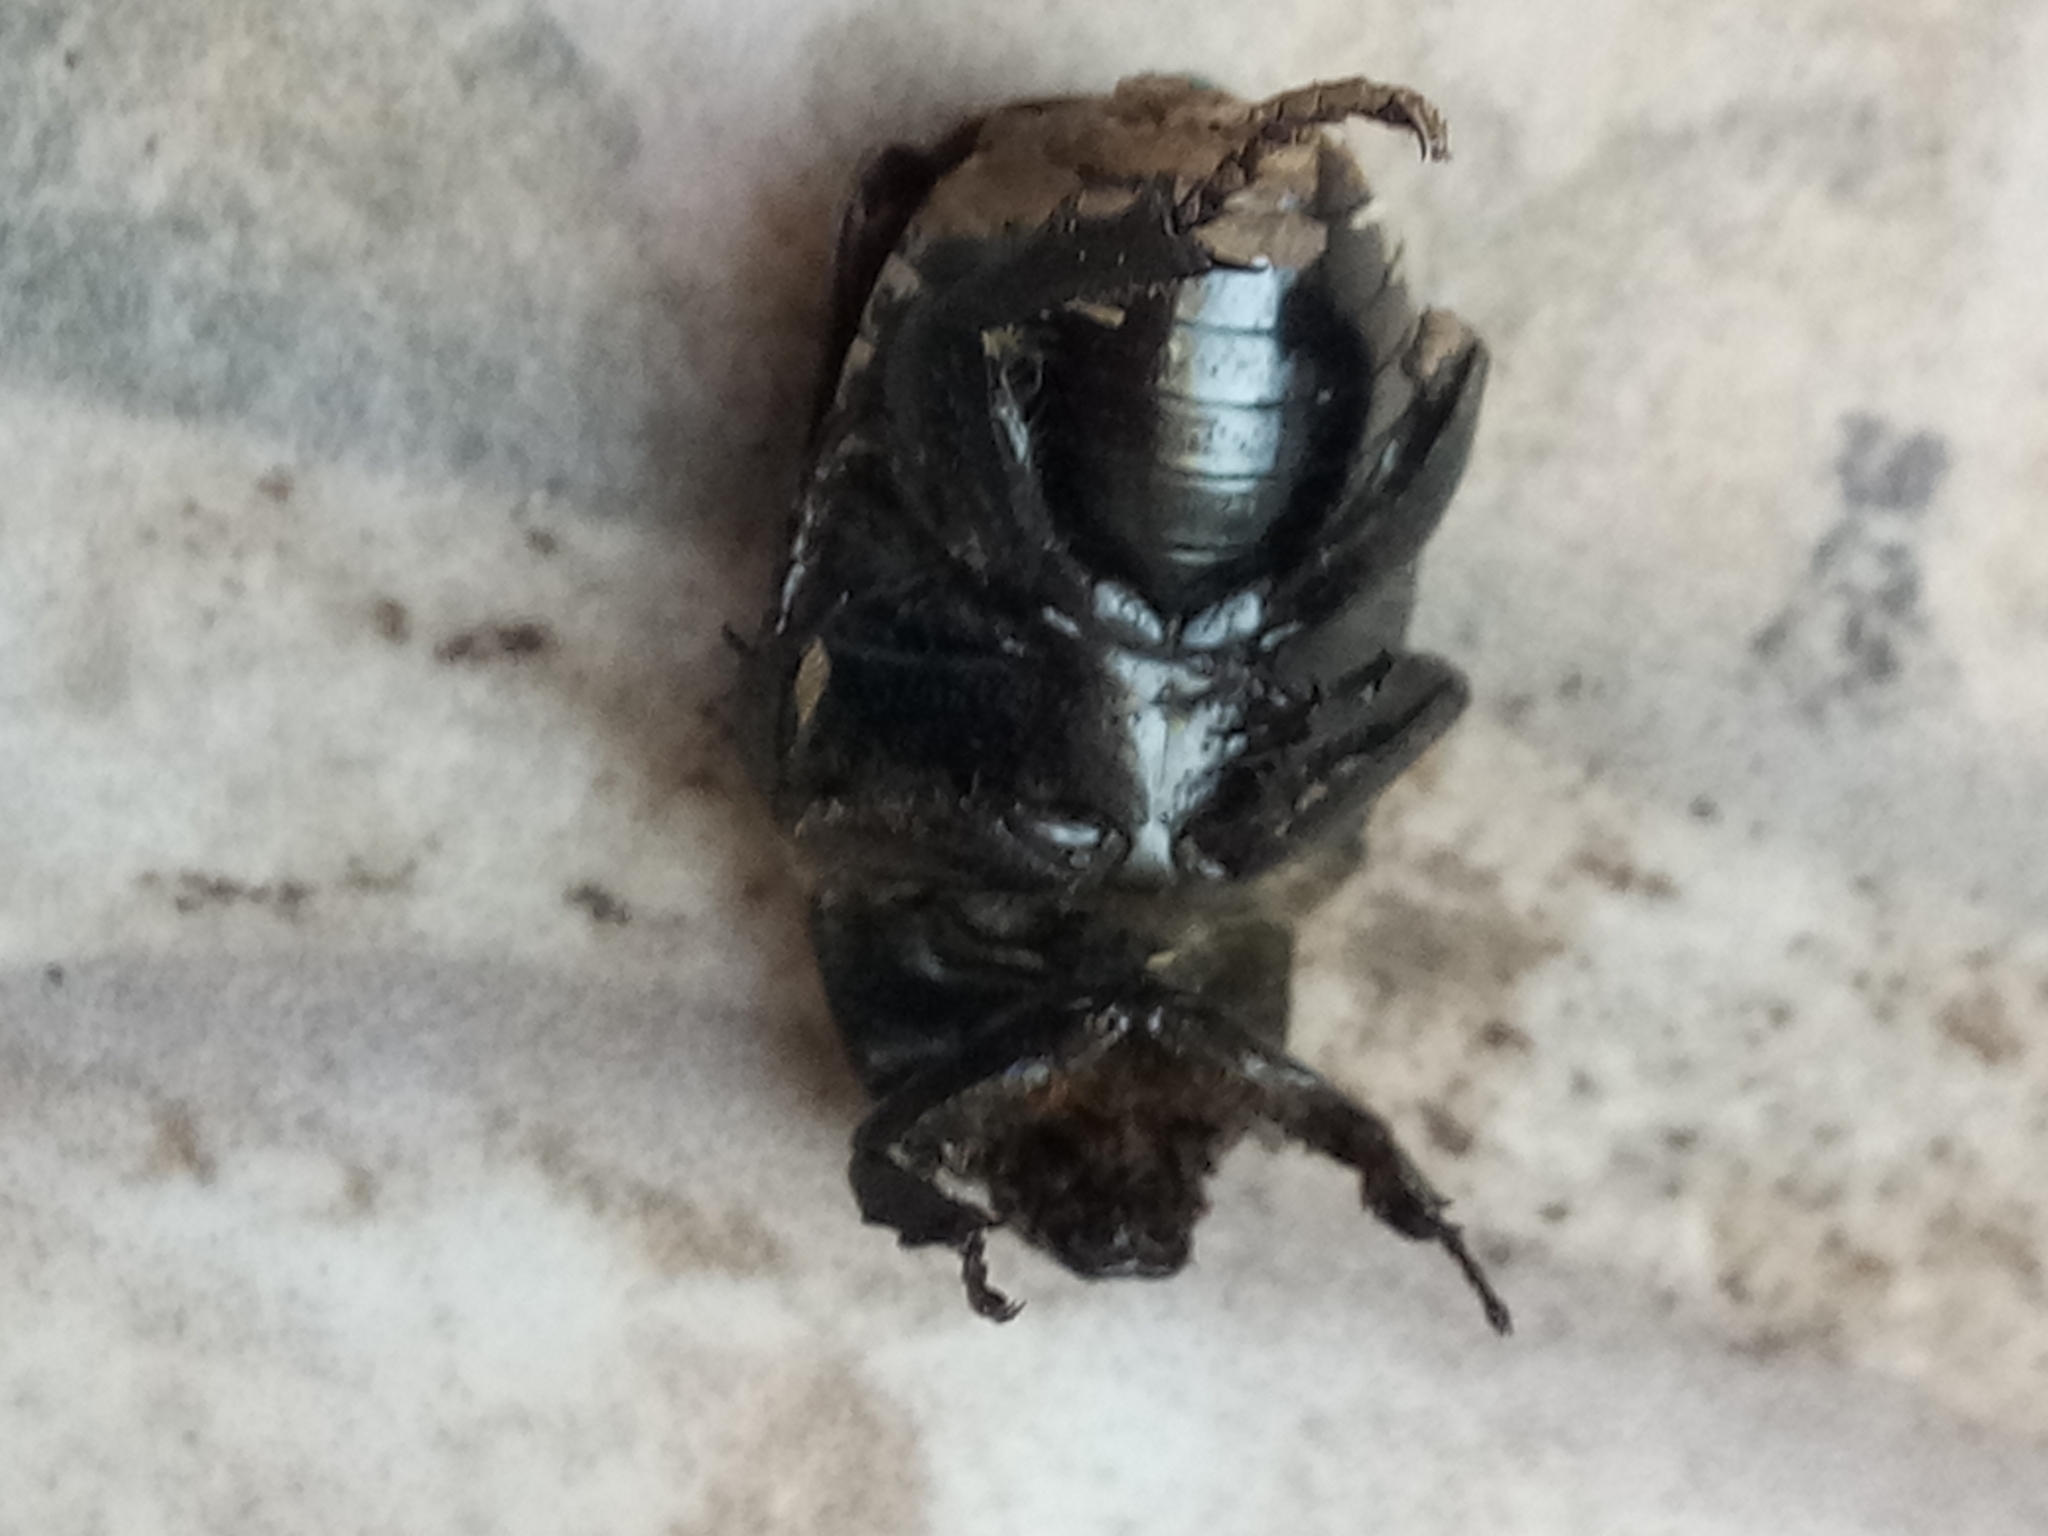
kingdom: Animalia
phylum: Arthropoda
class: Insecta
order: Coleoptera
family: Scarabaeidae
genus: Aethiessa
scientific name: Aethiessa floralis
